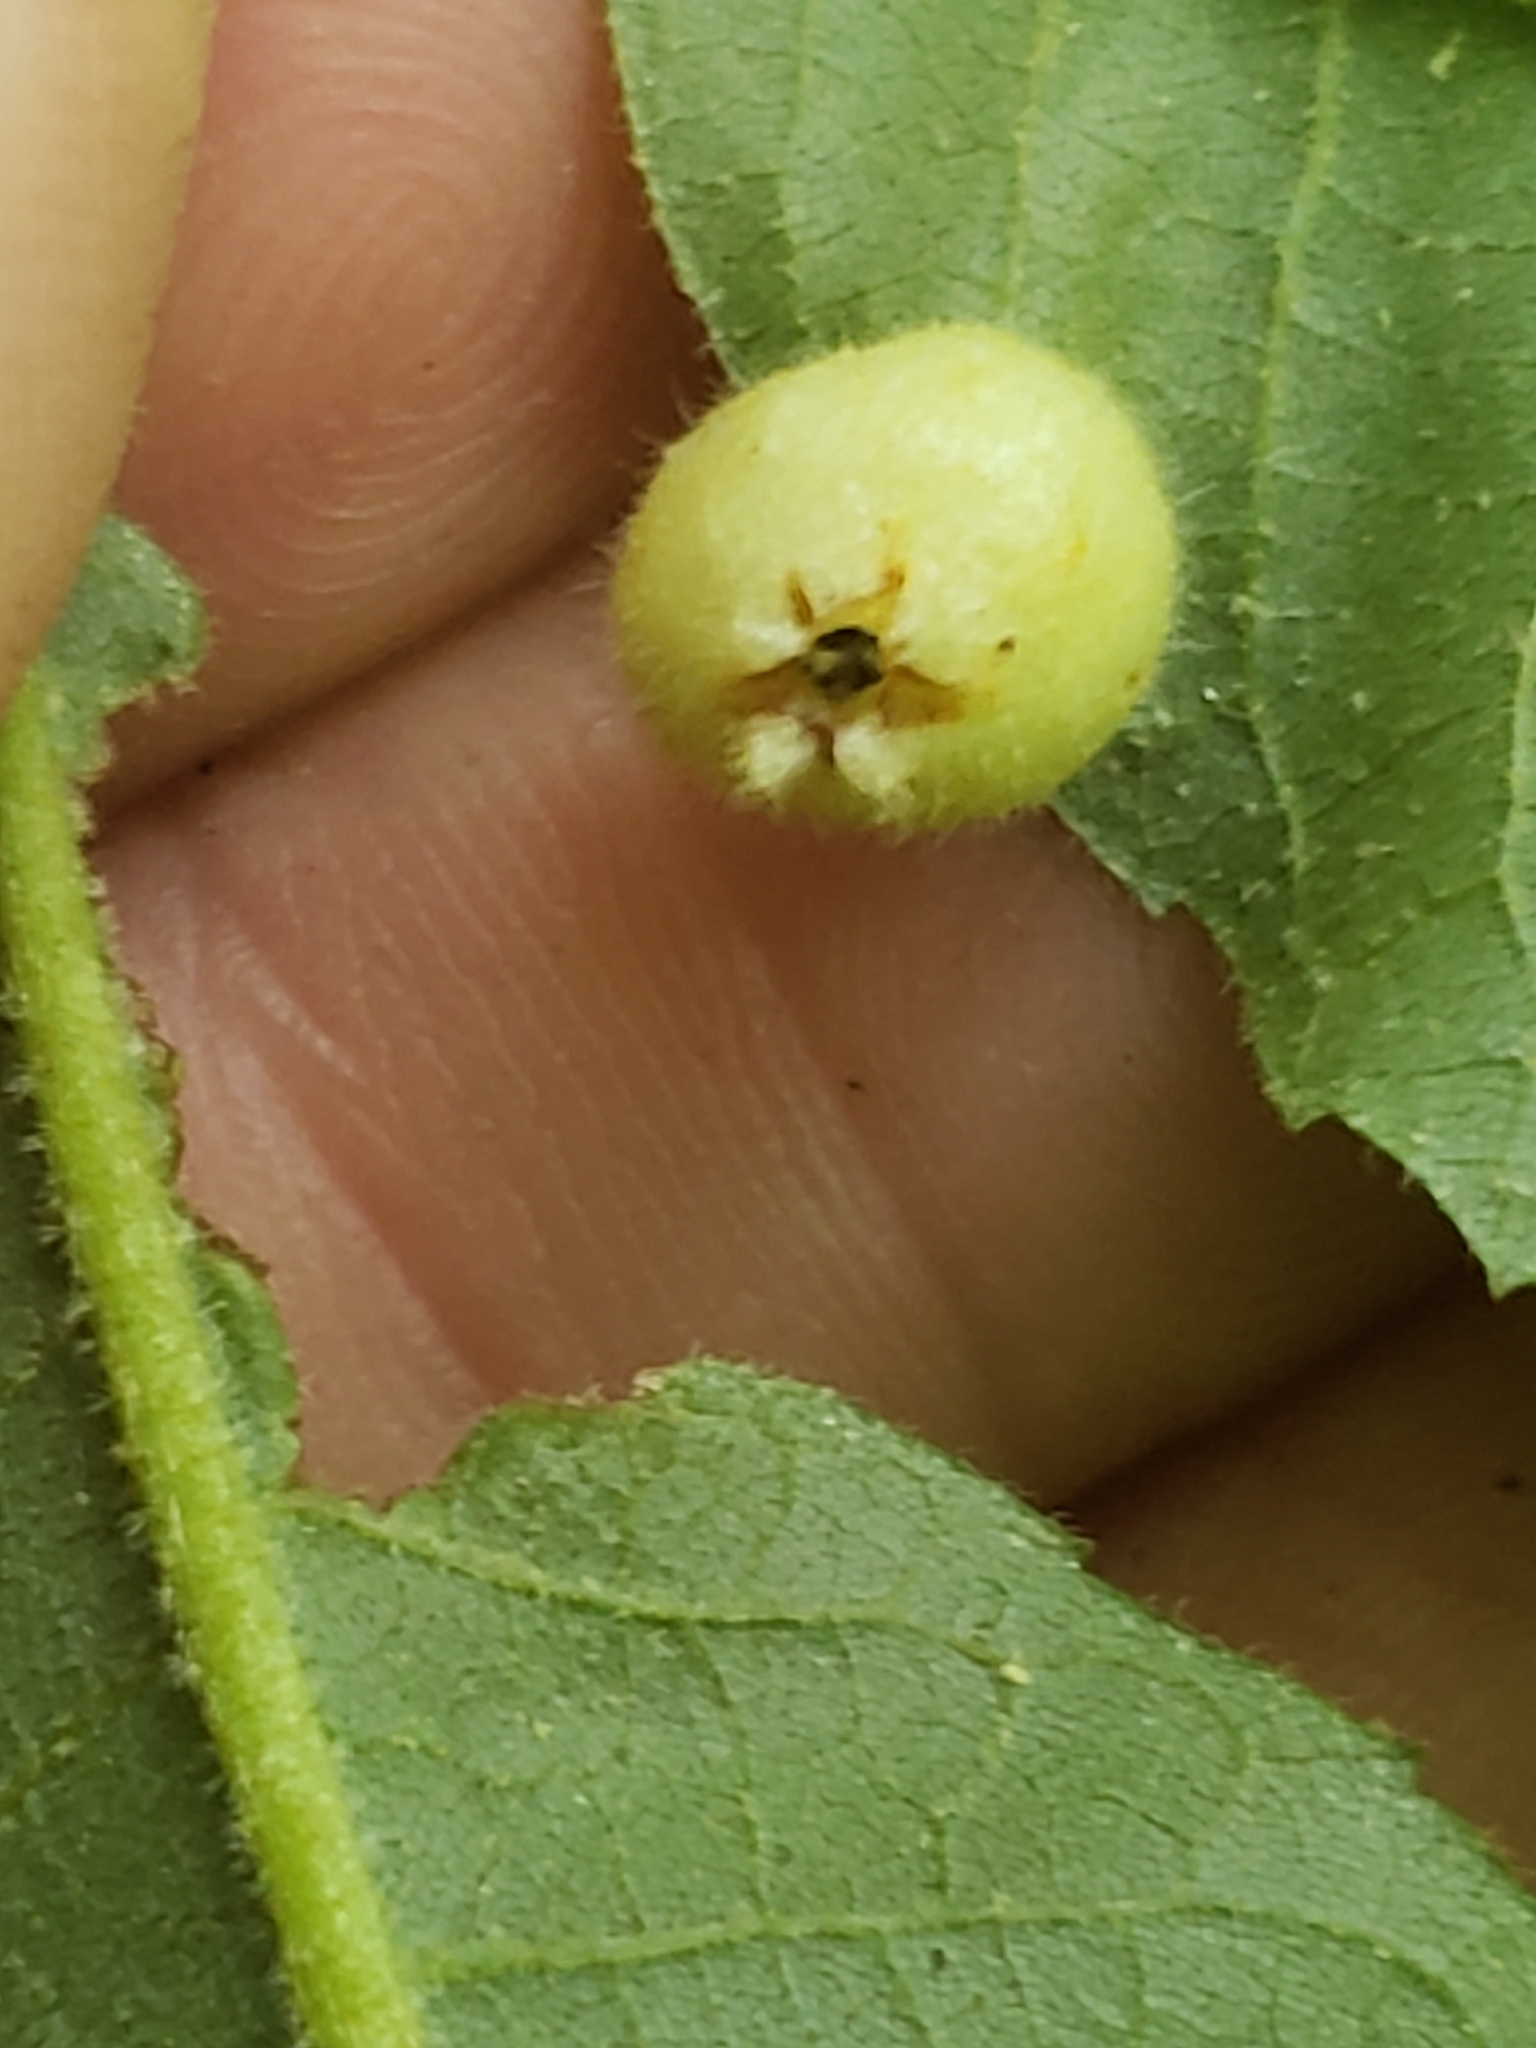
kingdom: Animalia
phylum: Arthropoda
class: Insecta
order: Hemiptera
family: Phylloxeridae
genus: Phylloxera
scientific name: Phylloxera caryaegummosa
